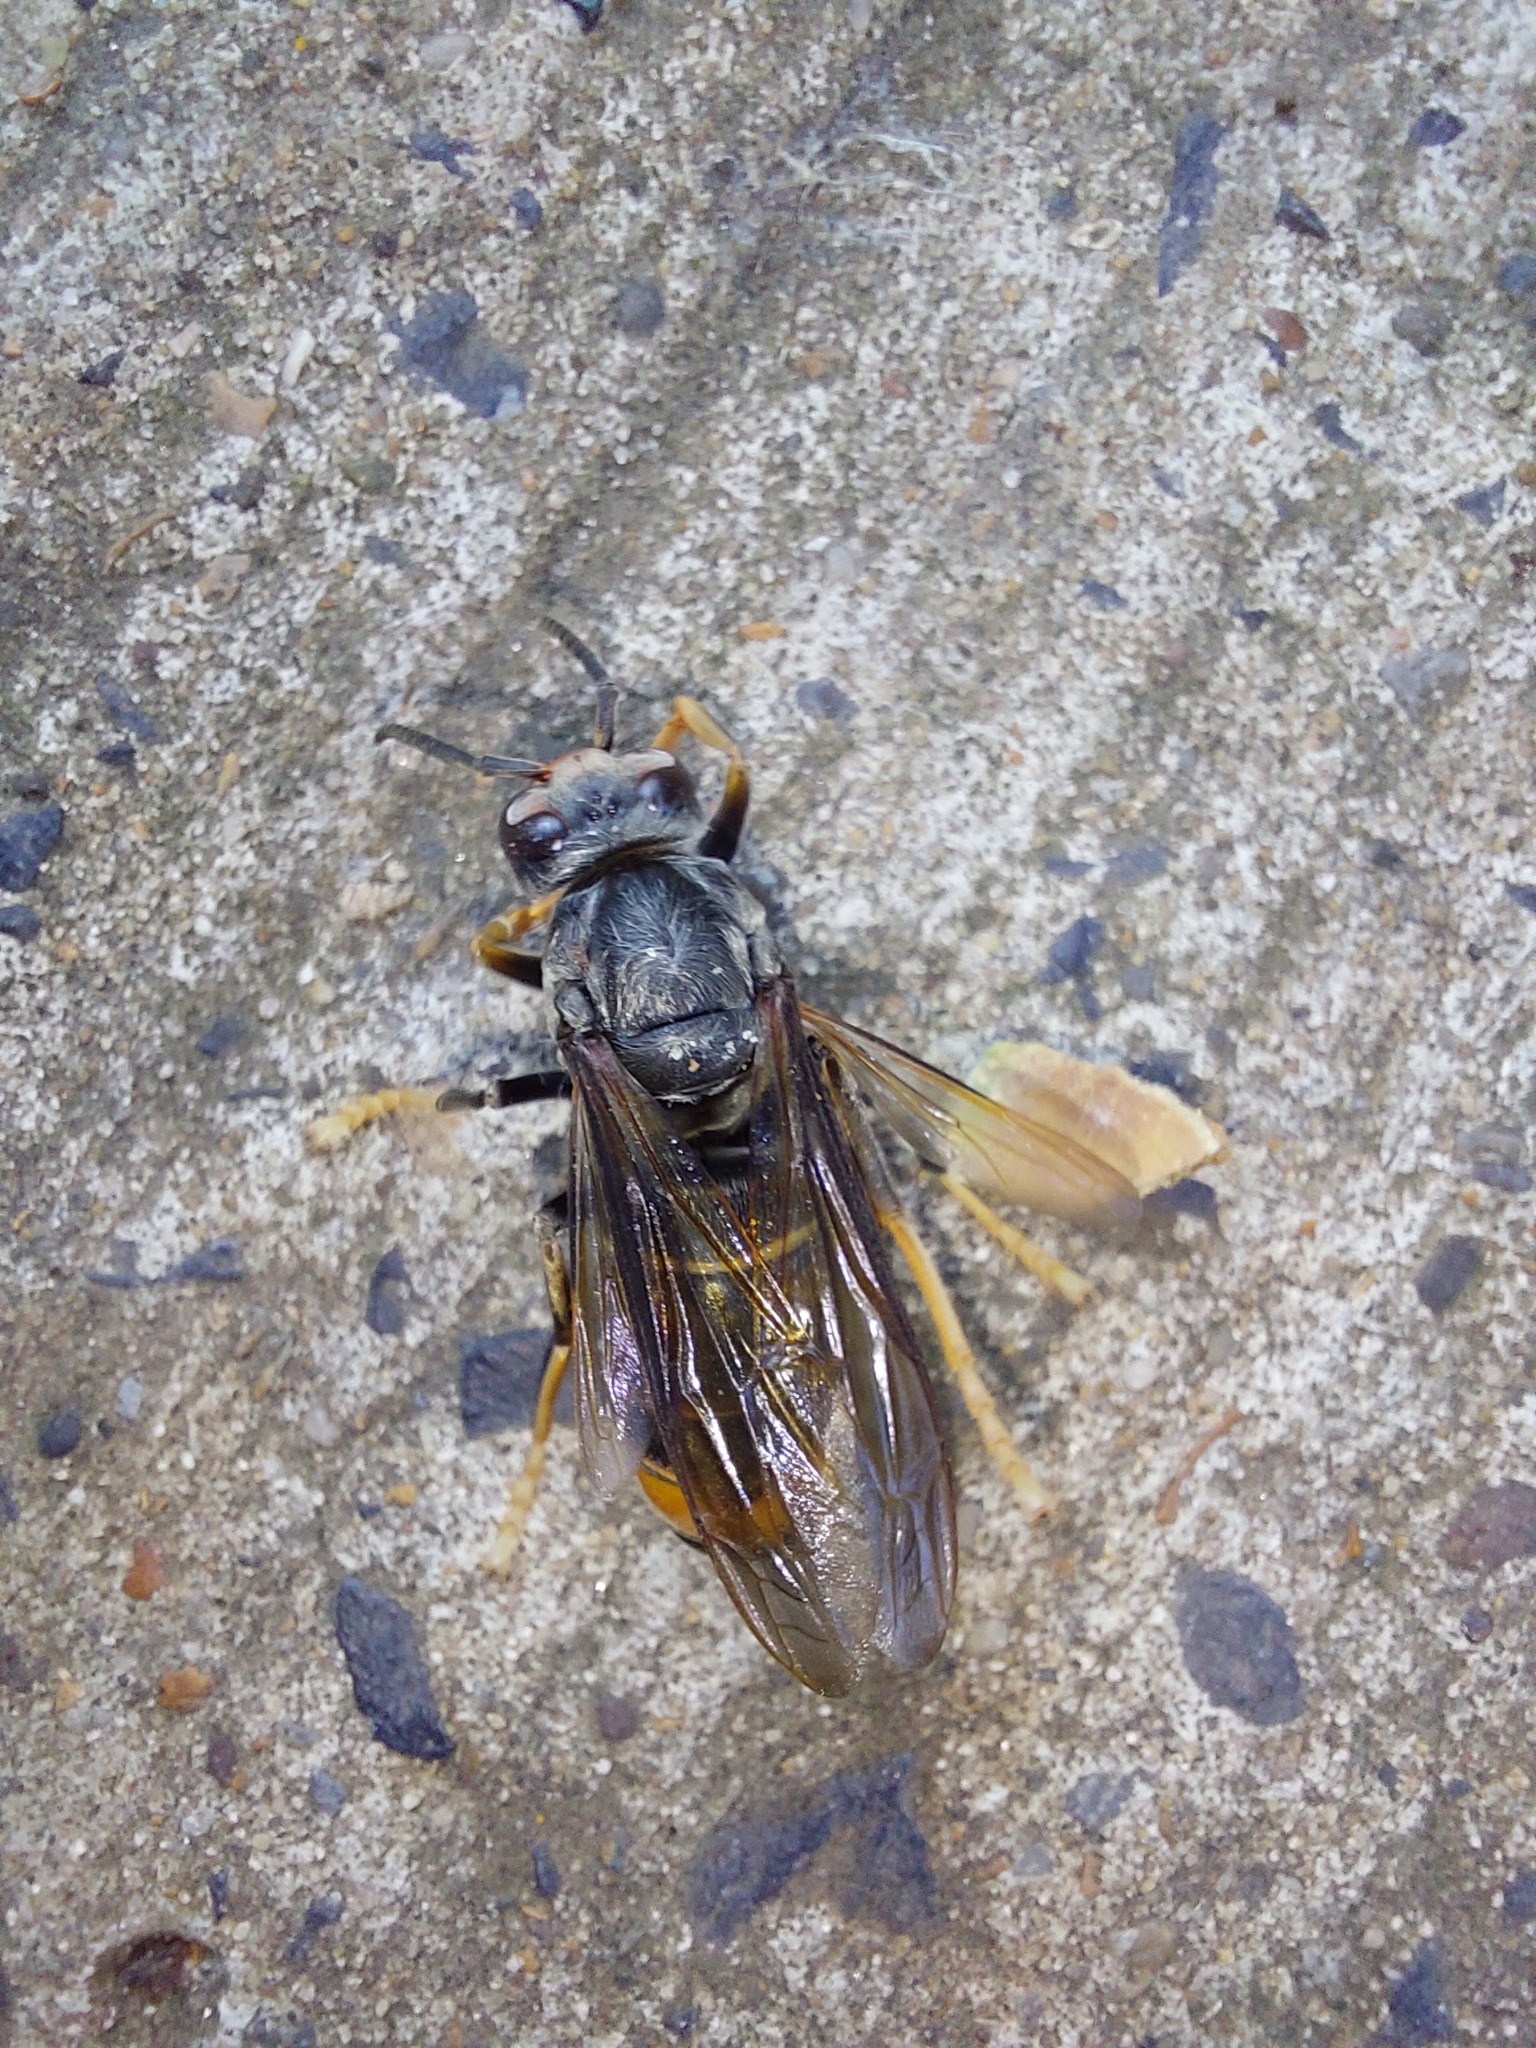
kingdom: Animalia
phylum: Arthropoda
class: Insecta
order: Hymenoptera
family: Vespidae
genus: Vespa
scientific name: Vespa velutina
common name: Asian hornet
